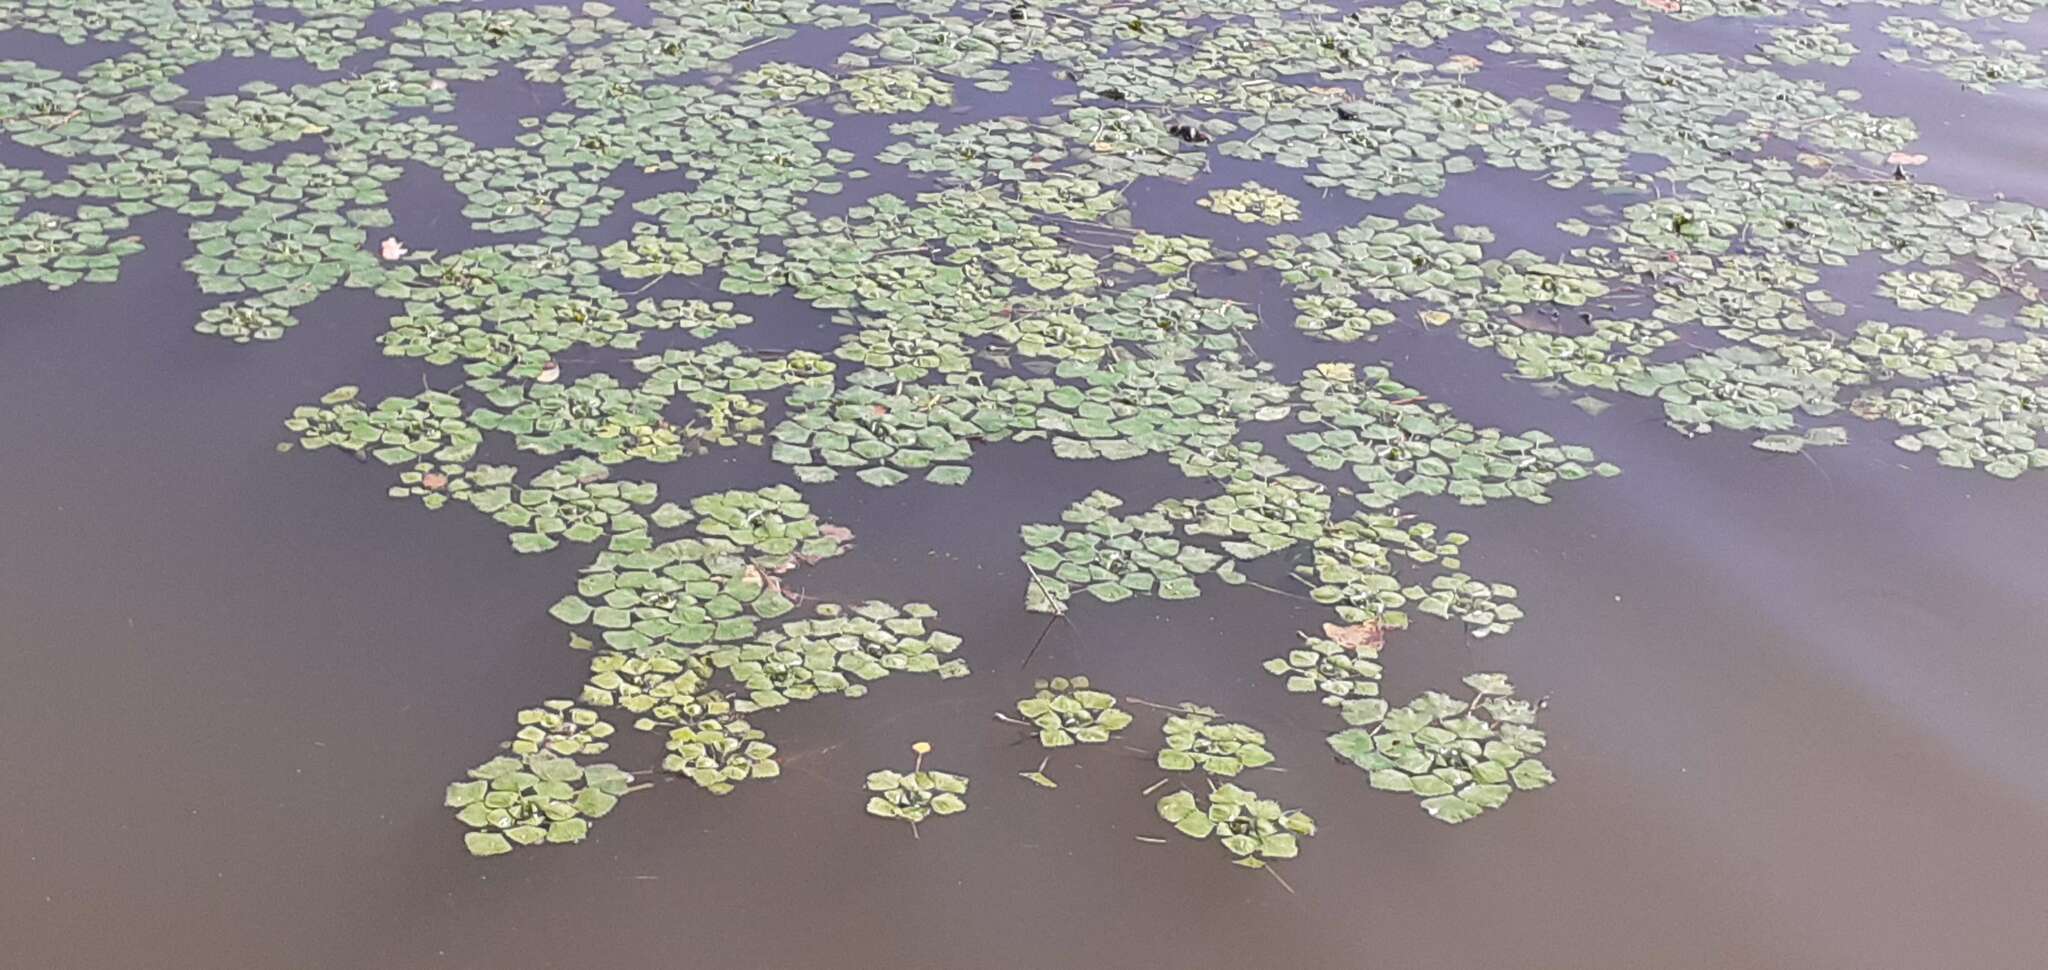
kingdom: Plantae
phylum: Tracheophyta
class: Magnoliopsida
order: Myrtales
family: Lythraceae
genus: Trapa
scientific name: Trapa natans
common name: Water chestnut
